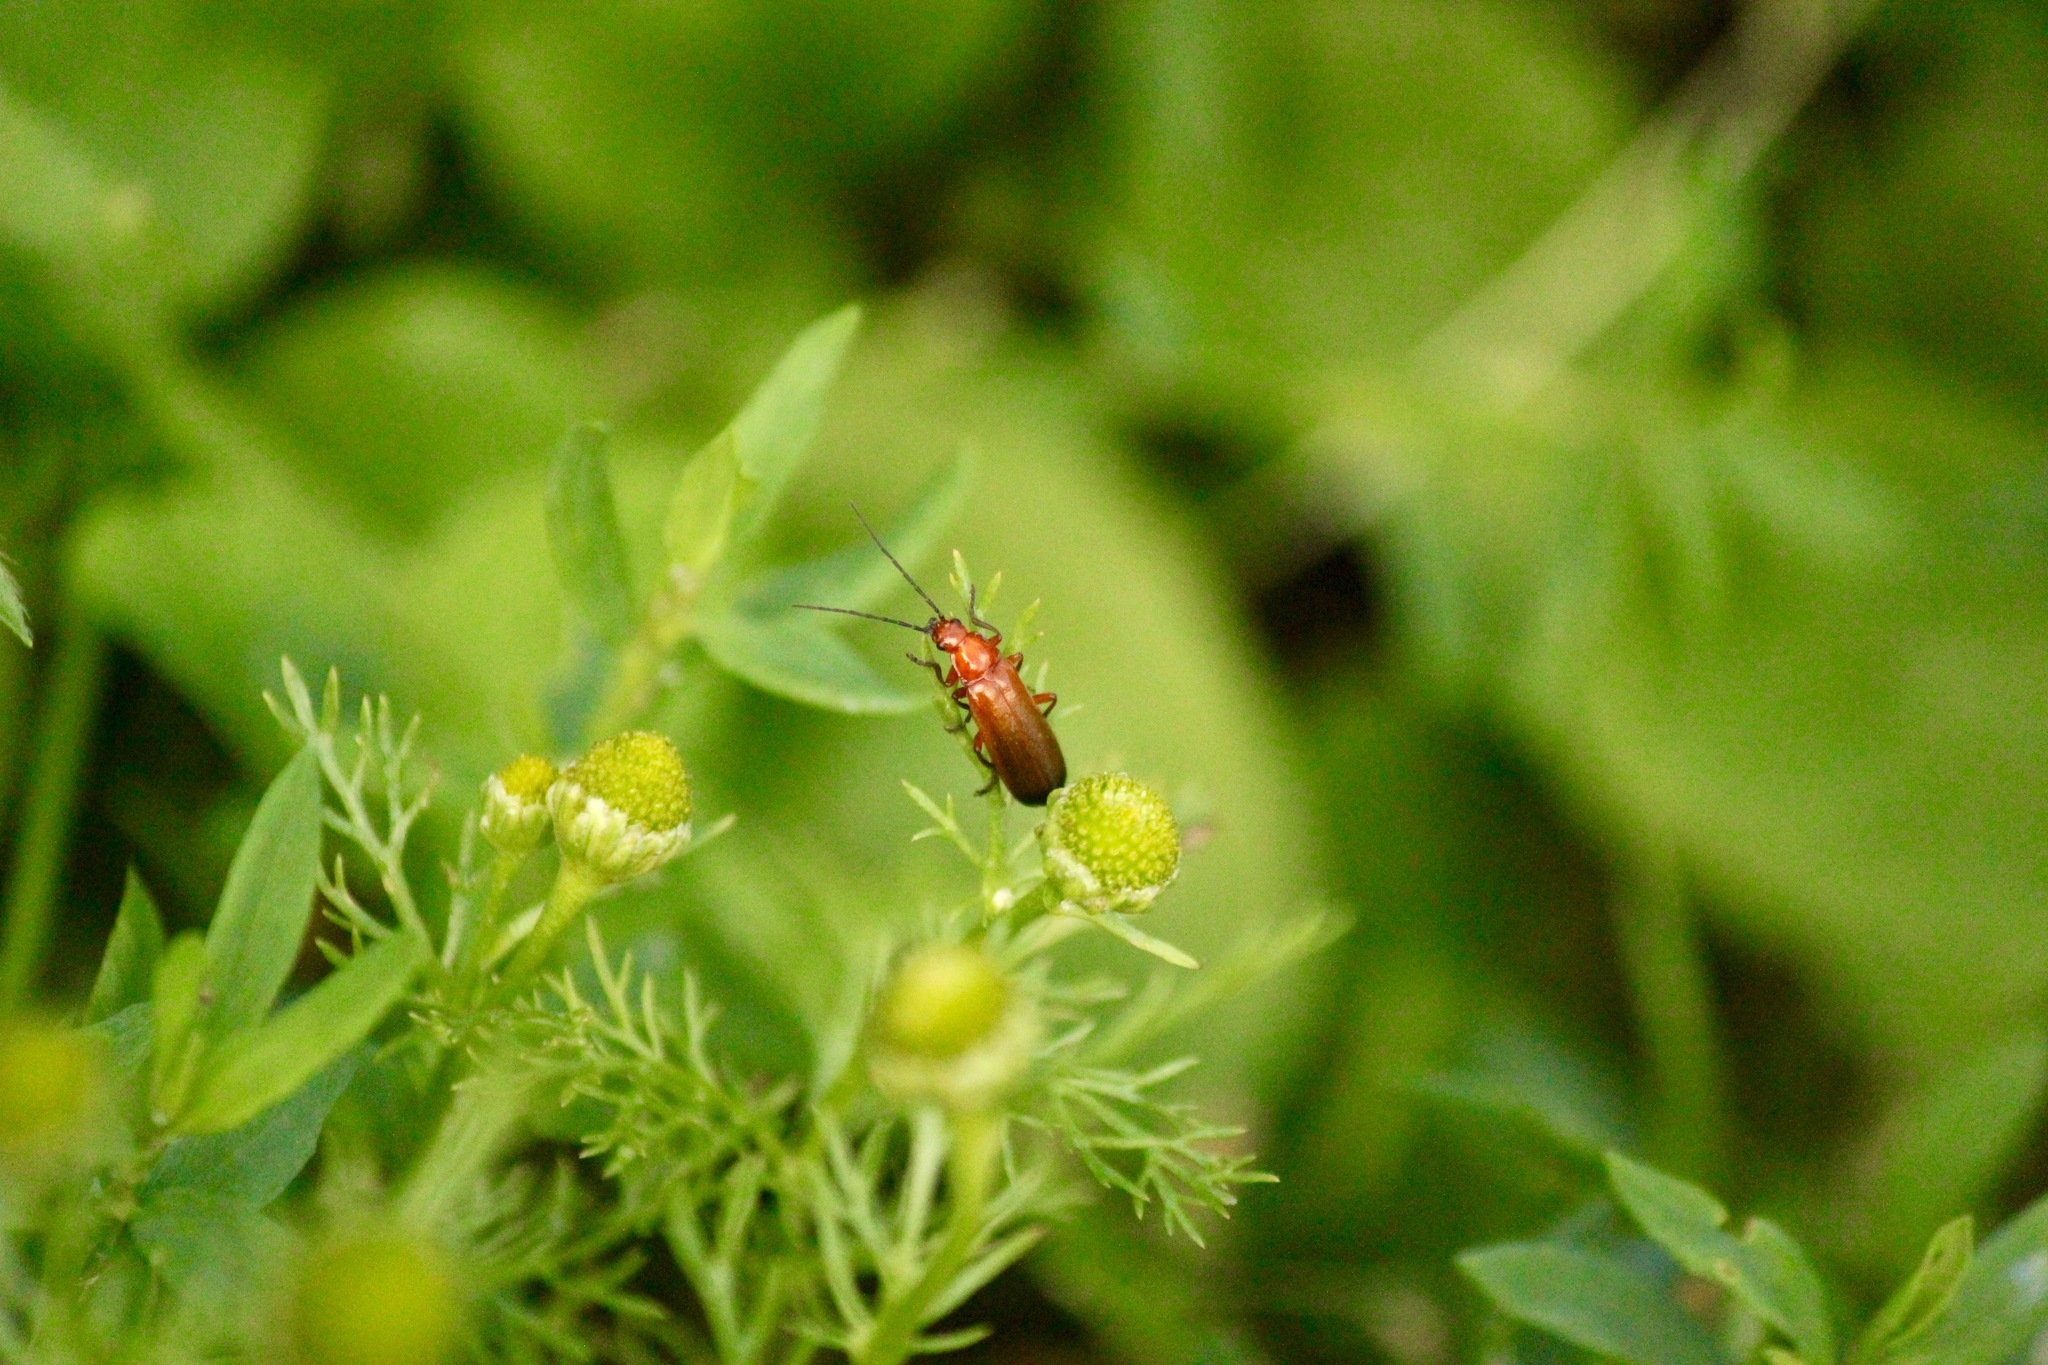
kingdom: Animalia
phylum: Arthropoda
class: Insecta
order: Coleoptera
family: Cantharidae
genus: Rhagonycha
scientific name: Rhagonycha fulva
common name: Common red soldier beetle
